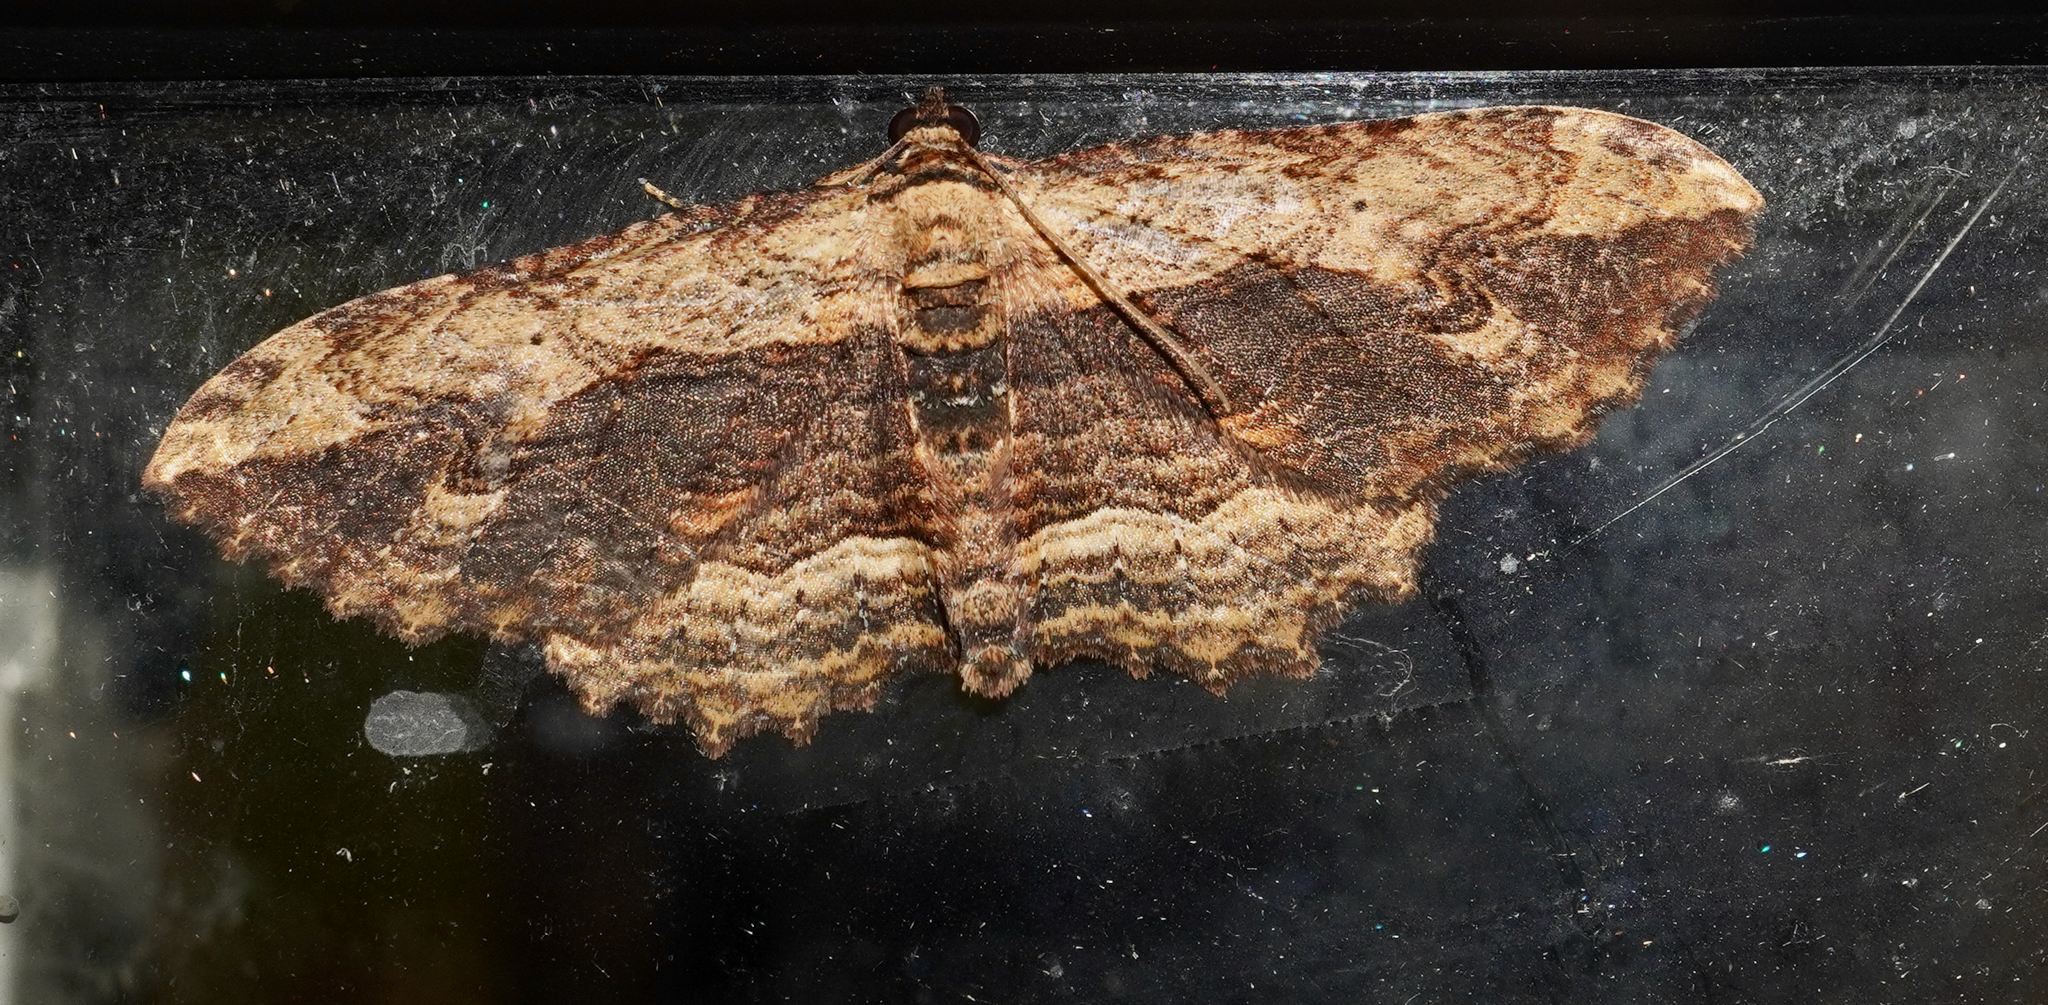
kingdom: Animalia
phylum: Arthropoda
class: Insecta
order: Lepidoptera
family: Geometridae
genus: Austrocidaria
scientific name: Austrocidaria bipartita
